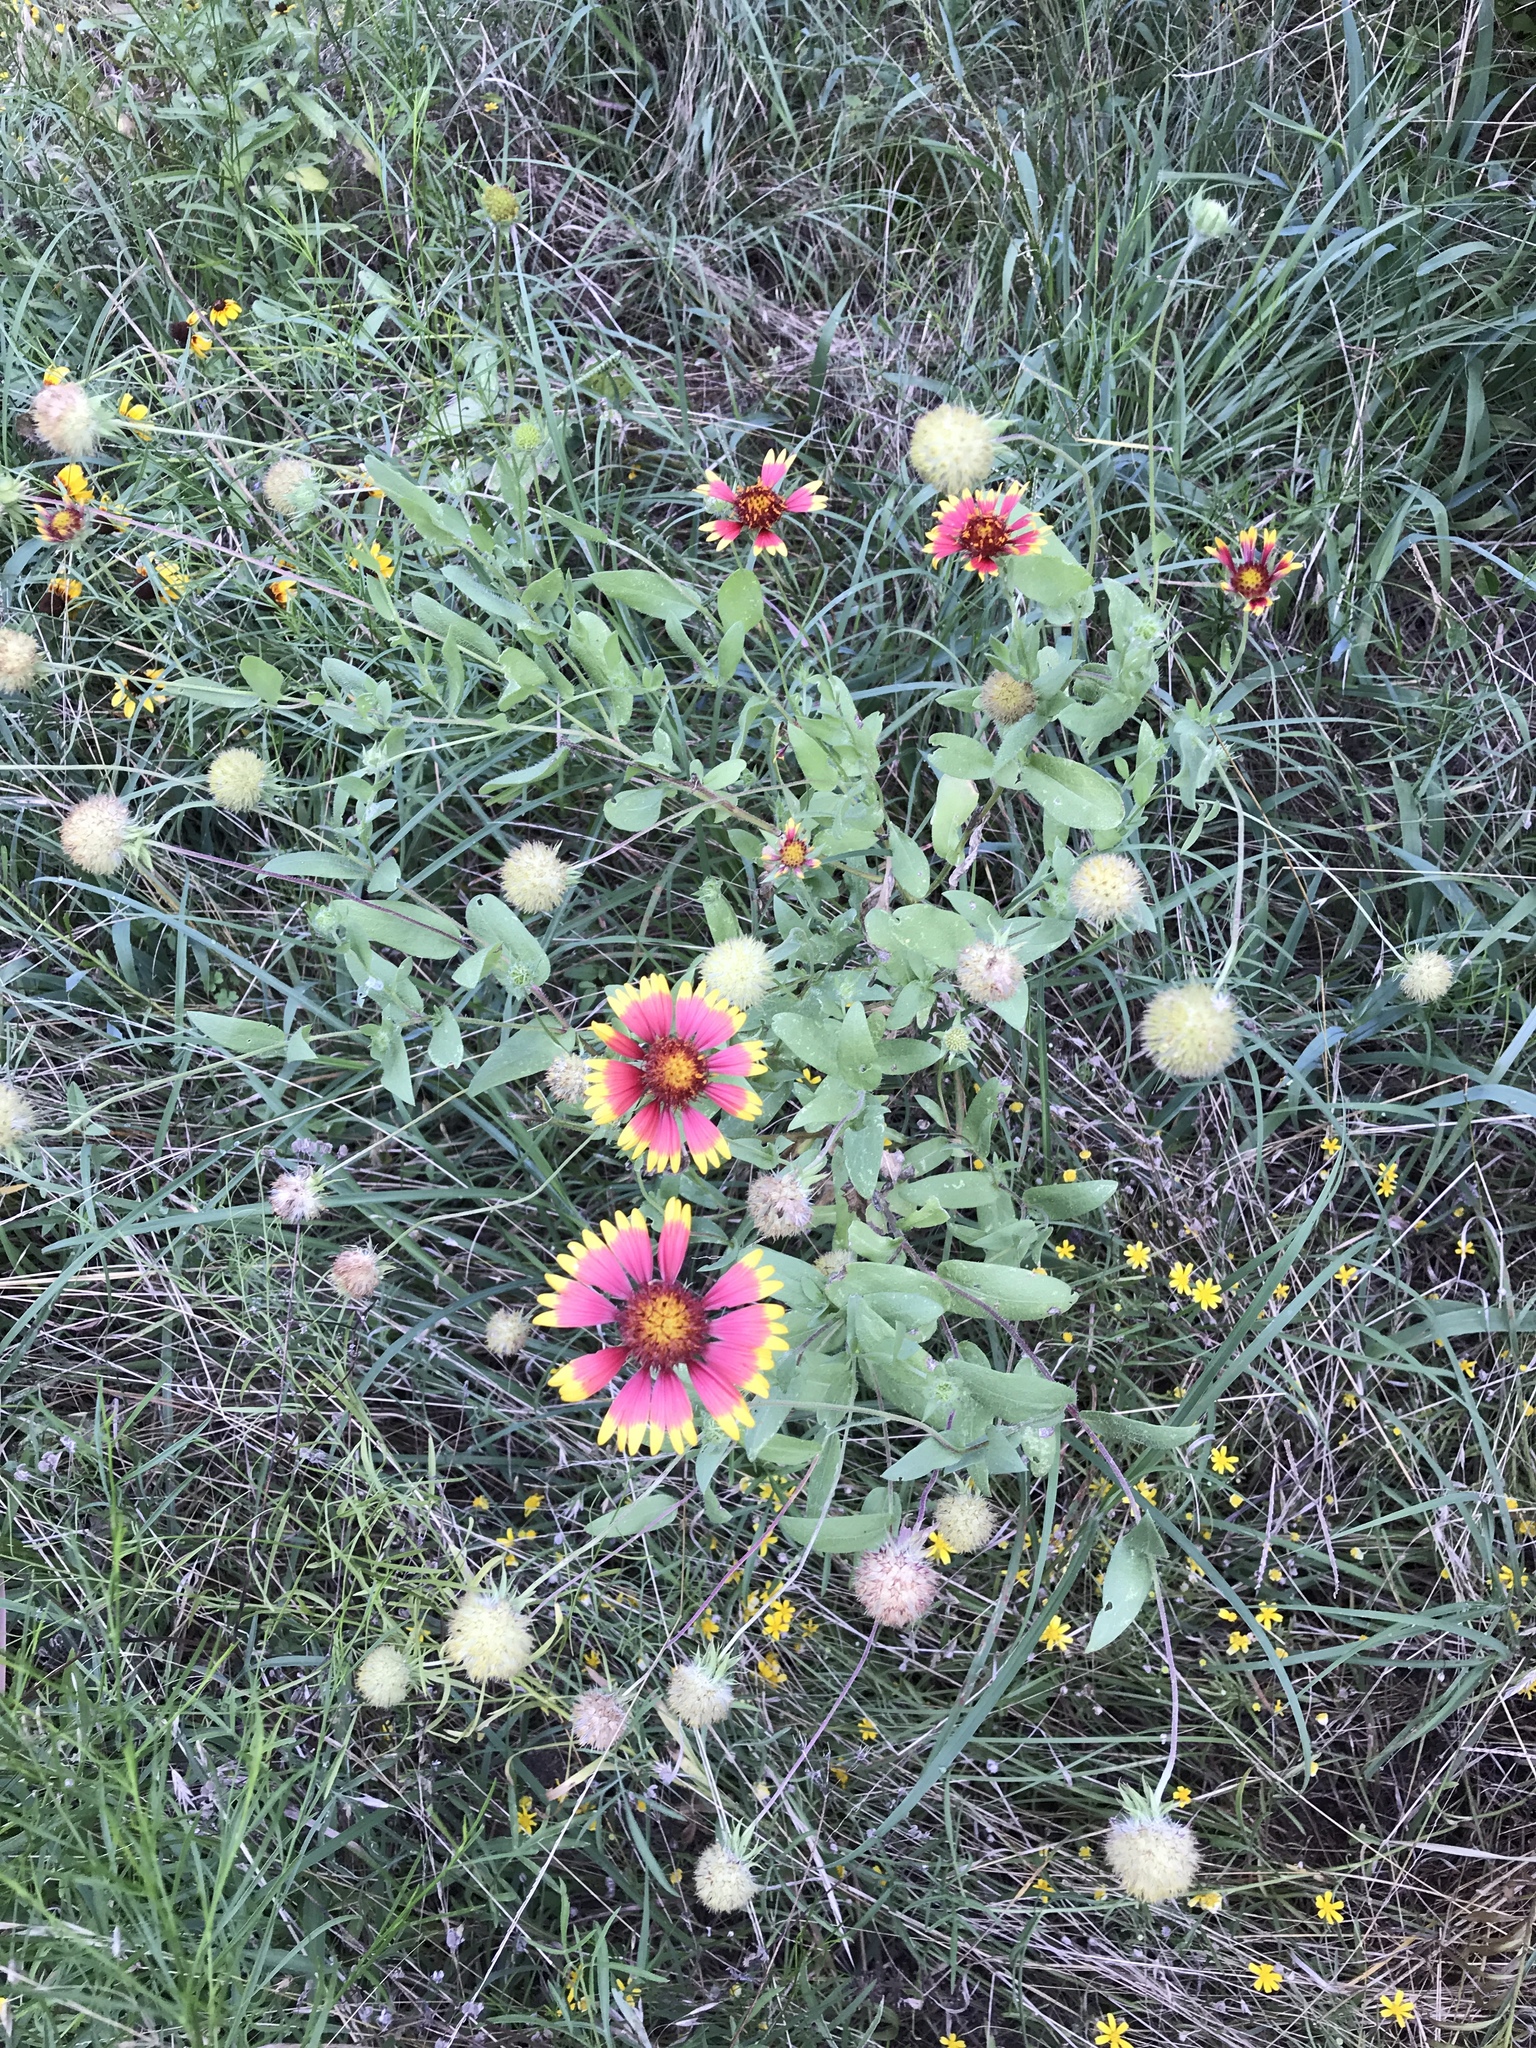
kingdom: Plantae
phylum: Tracheophyta
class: Magnoliopsida
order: Asterales
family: Asteraceae
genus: Gaillardia
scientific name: Gaillardia pulchella
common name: Firewheel
